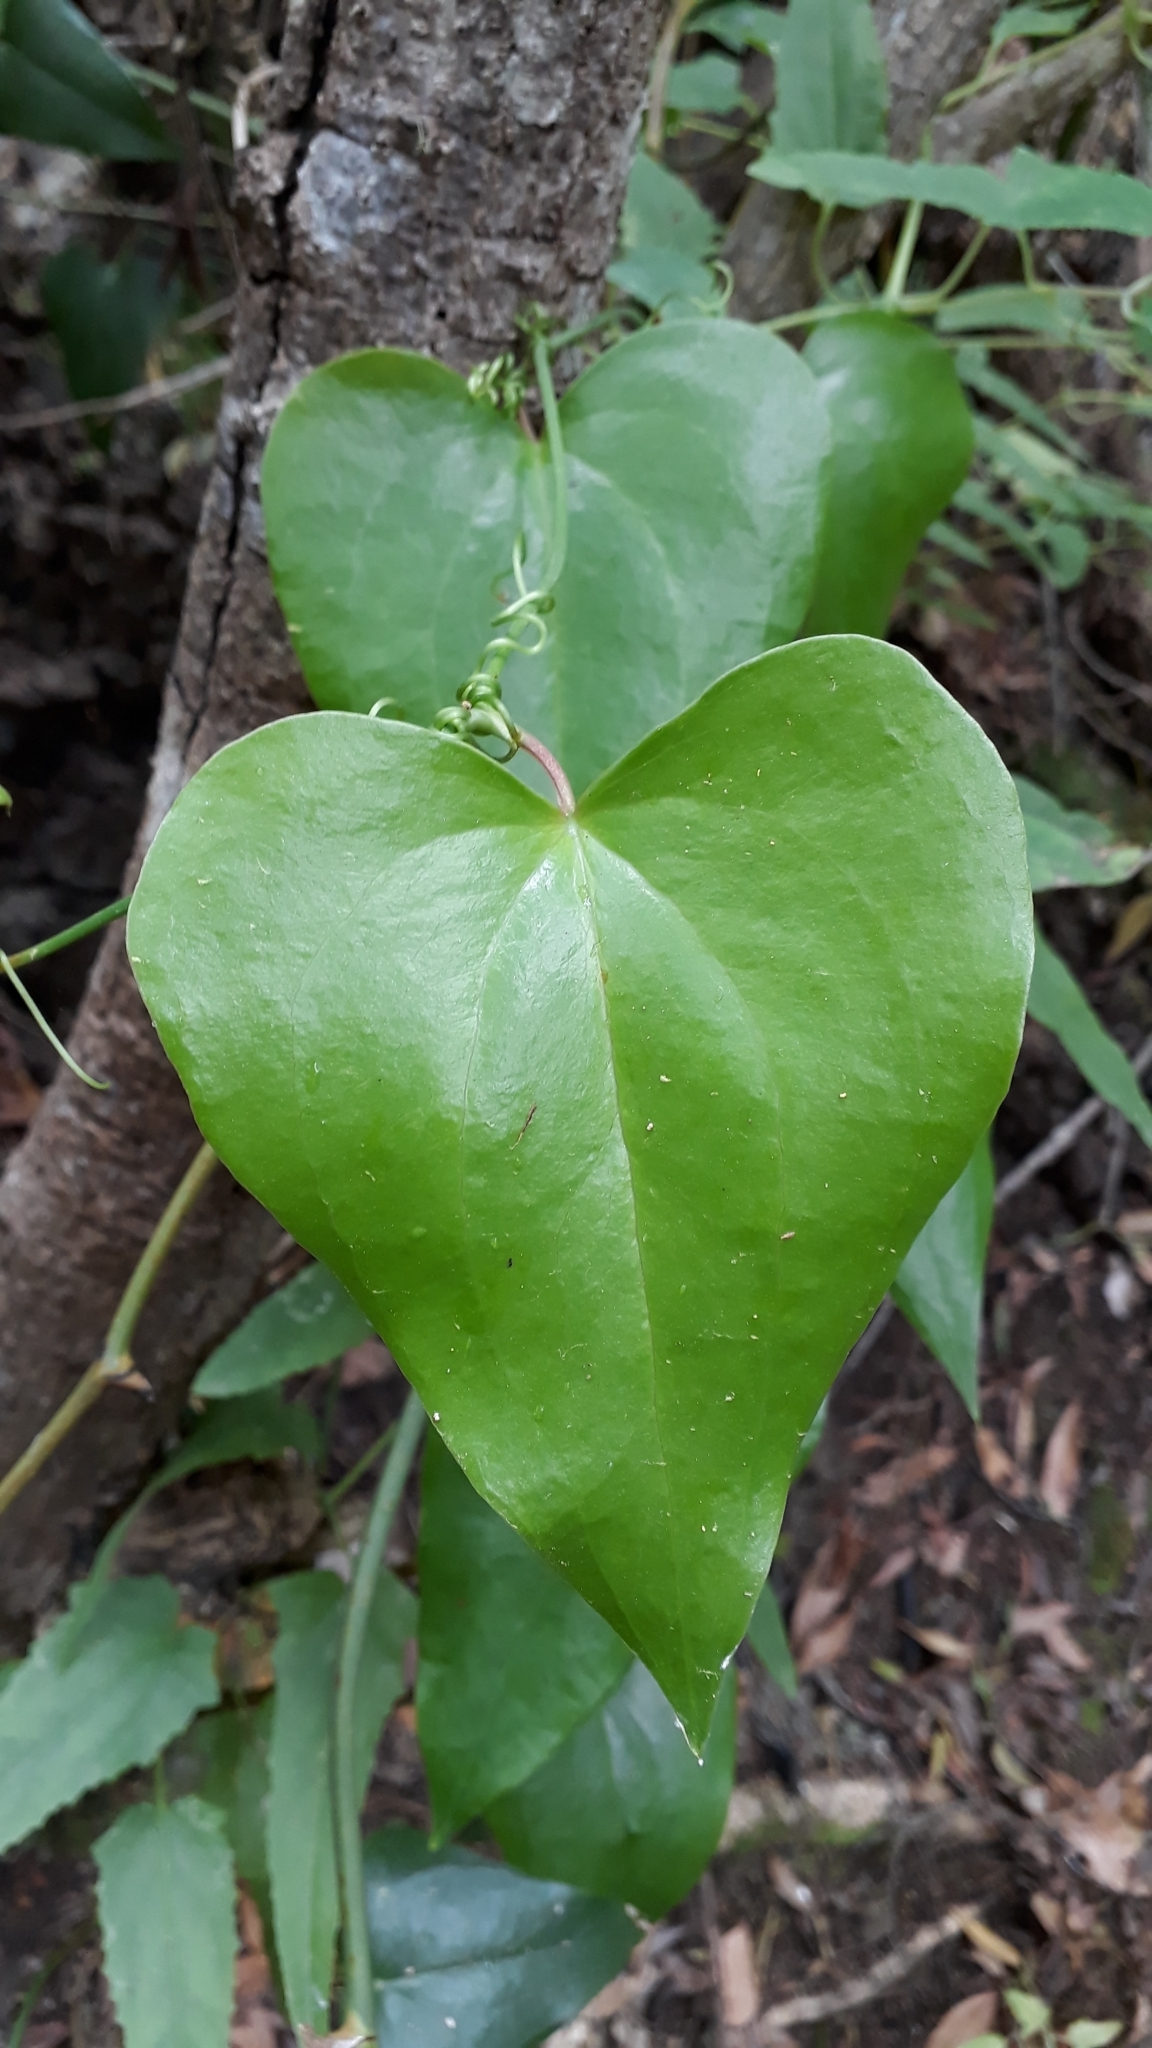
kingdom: Plantae
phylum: Tracheophyta
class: Liliopsida
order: Liliales
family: Smilacaceae
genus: Smilax
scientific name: Smilax canariensis
